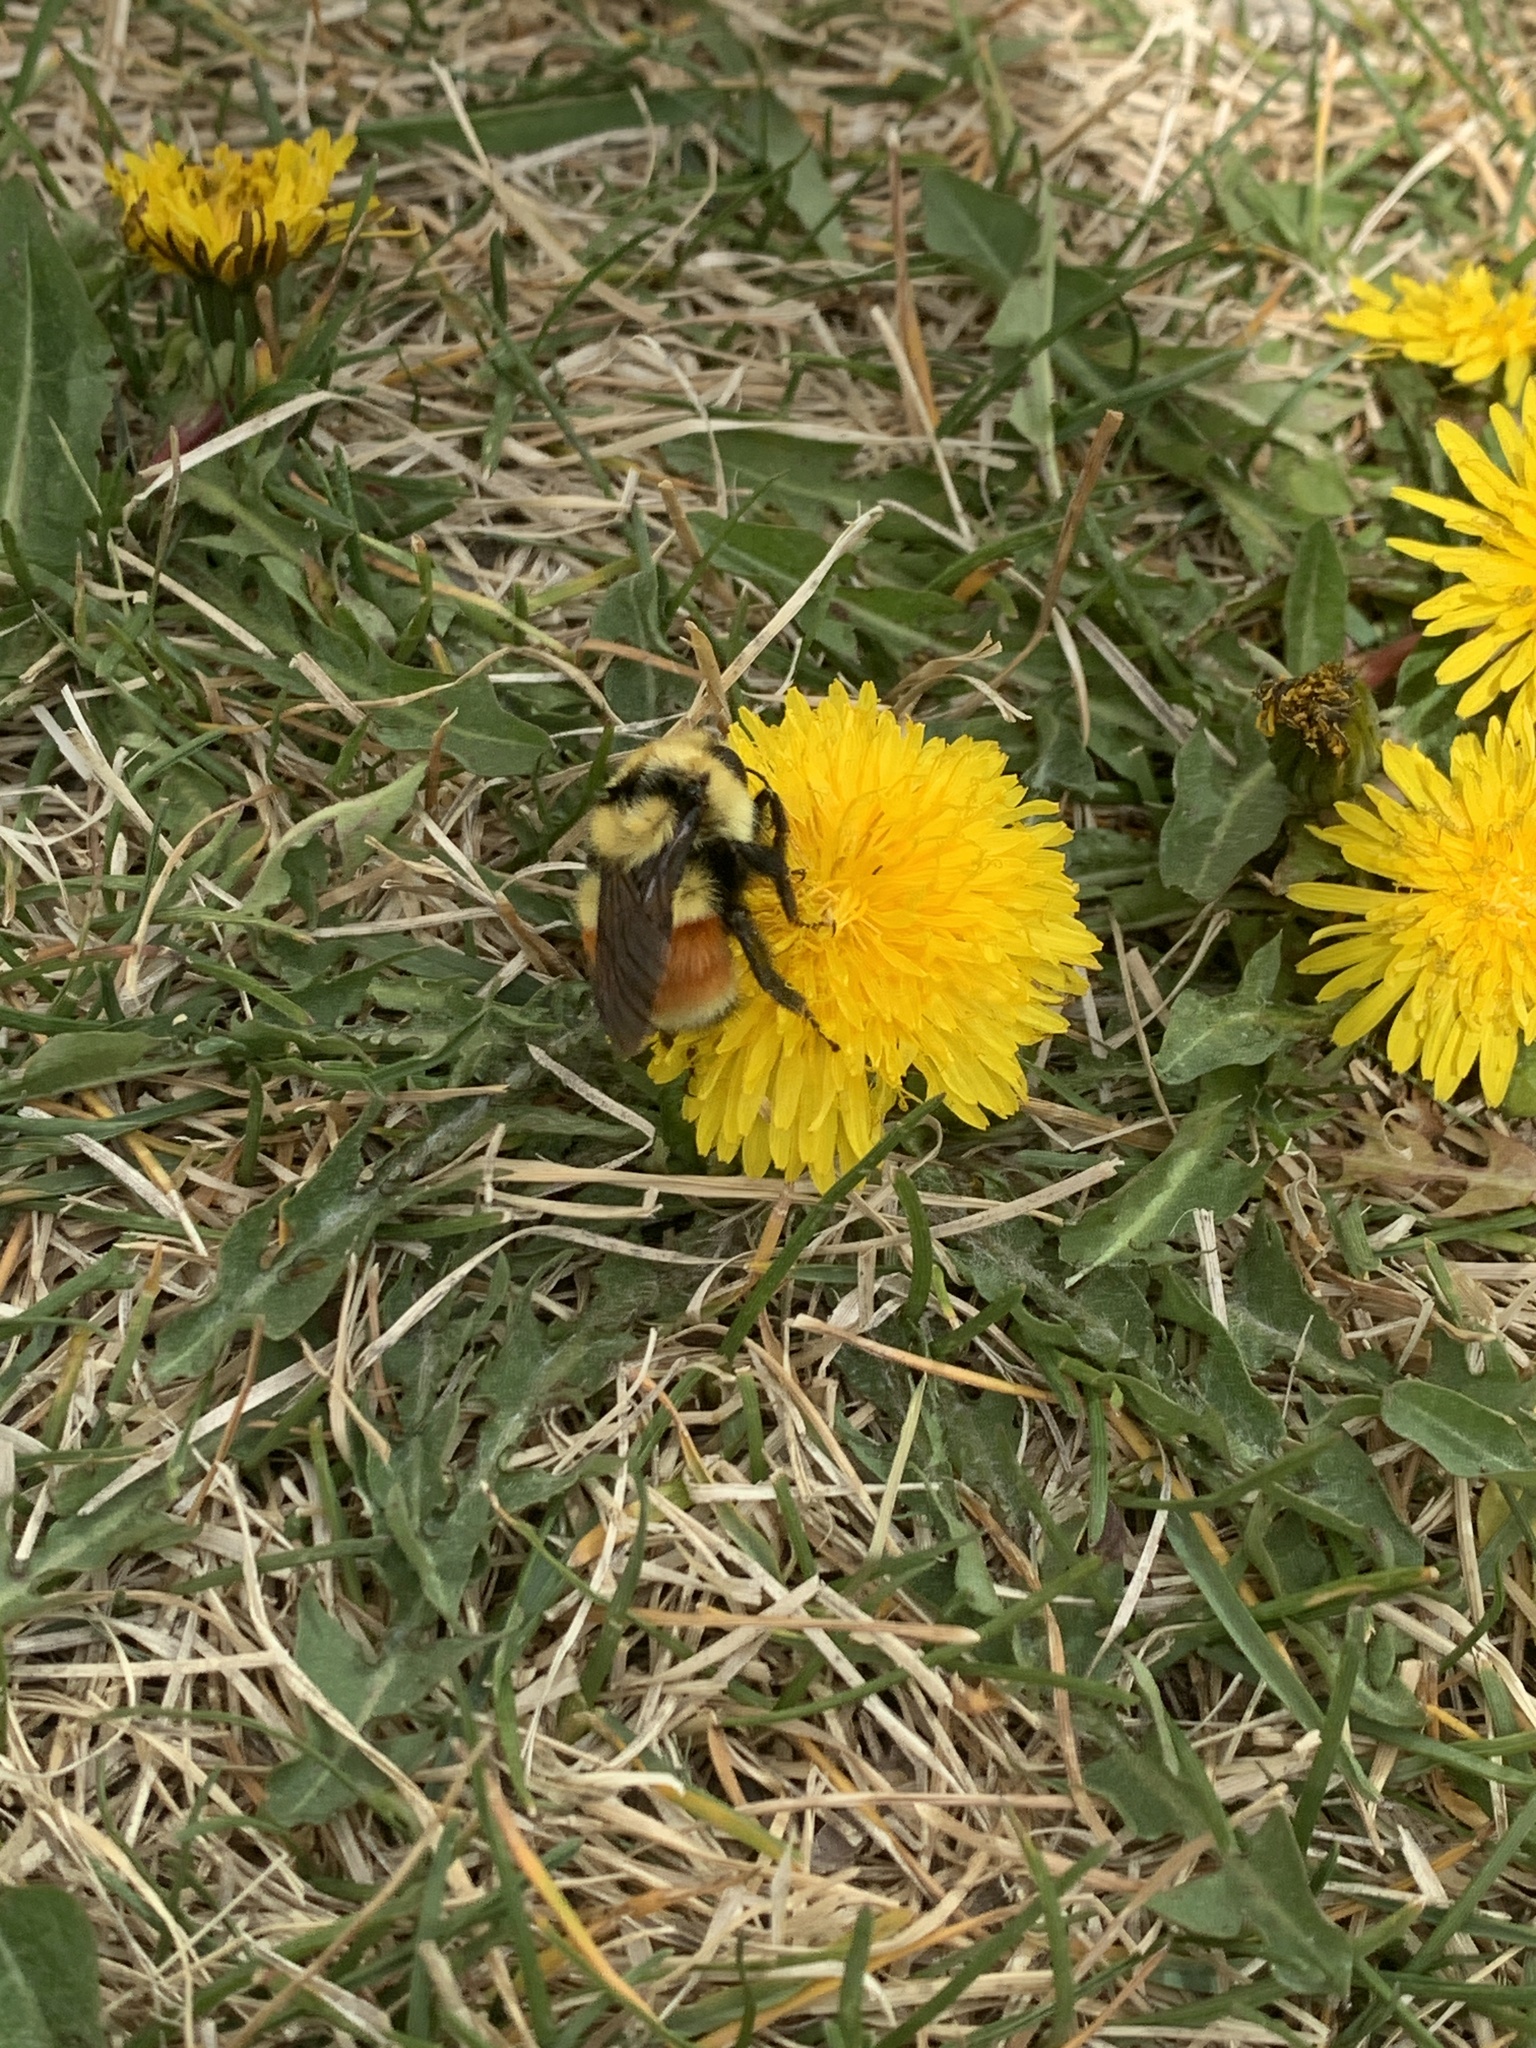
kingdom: Animalia
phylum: Arthropoda
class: Insecta
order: Hymenoptera
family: Apidae
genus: Bombus
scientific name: Bombus huntii
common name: Hunt bumble bee
